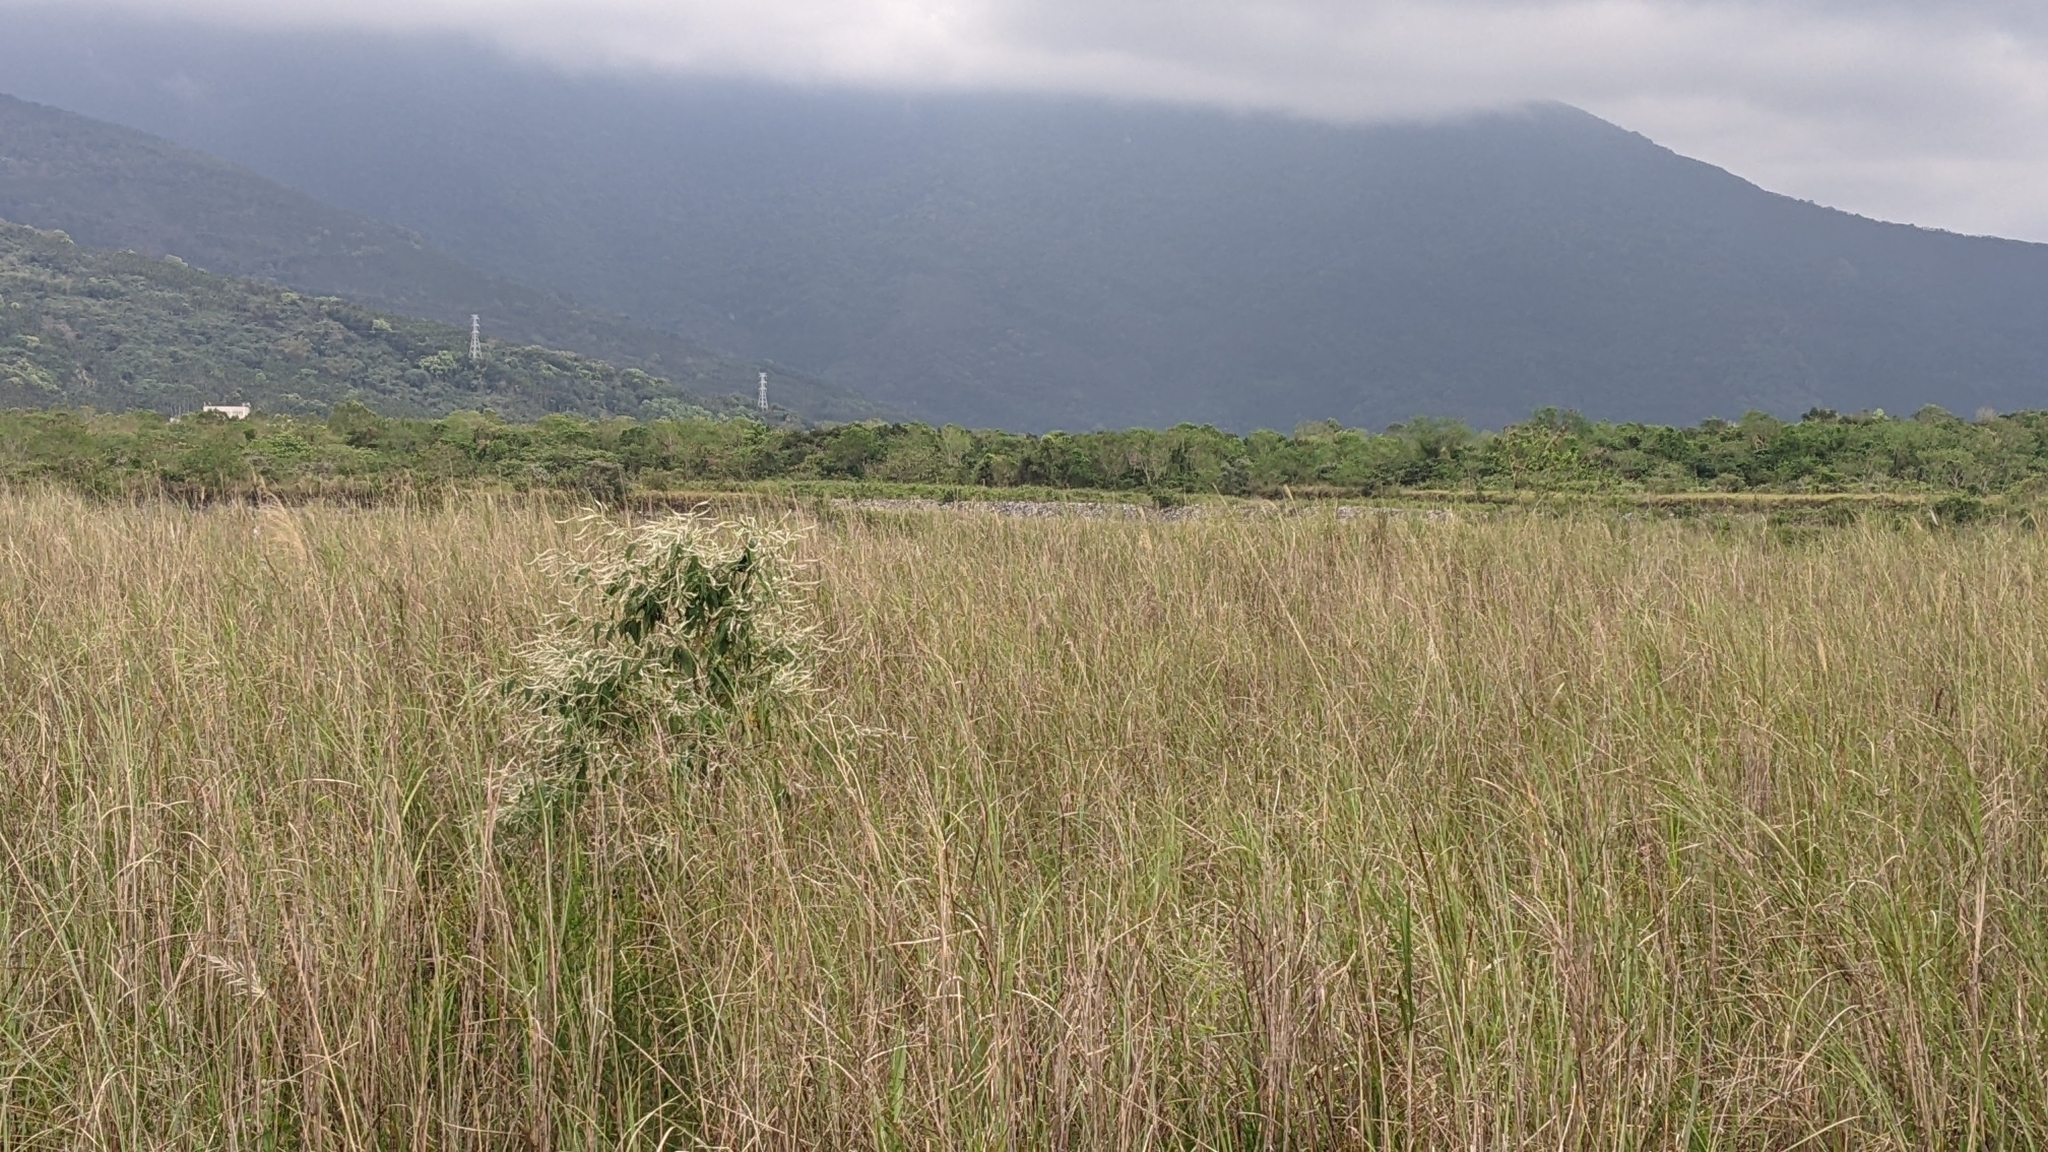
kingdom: Plantae
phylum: Tracheophyta
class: Magnoliopsida
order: Lamiales
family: Scrophulariaceae
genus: Buddleja
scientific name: Buddleja asiatica
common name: Dog tail
